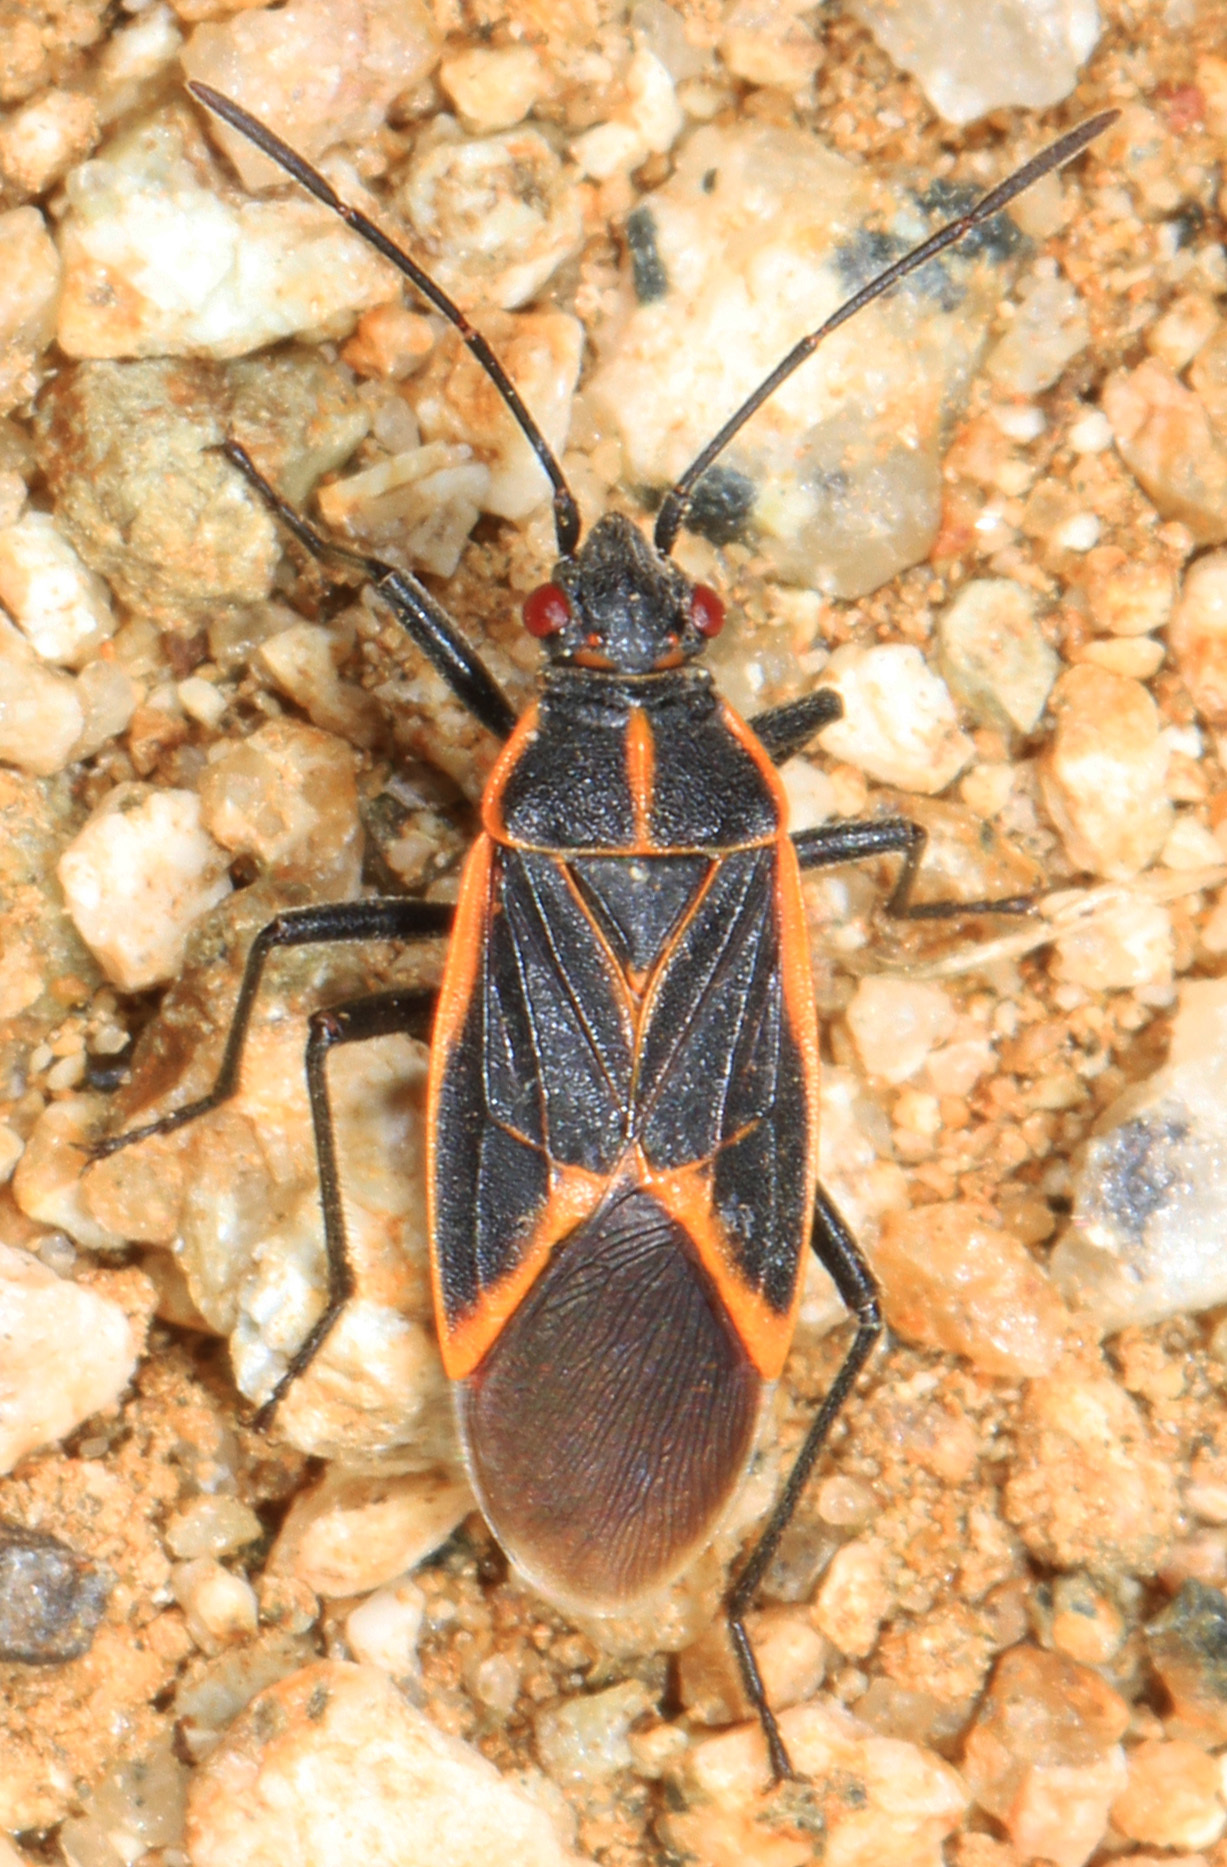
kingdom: Animalia
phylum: Arthropoda
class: Insecta
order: Hemiptera
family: Rhopalidae
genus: Boisea
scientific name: Boisea trivittata
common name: Boxelder bug
